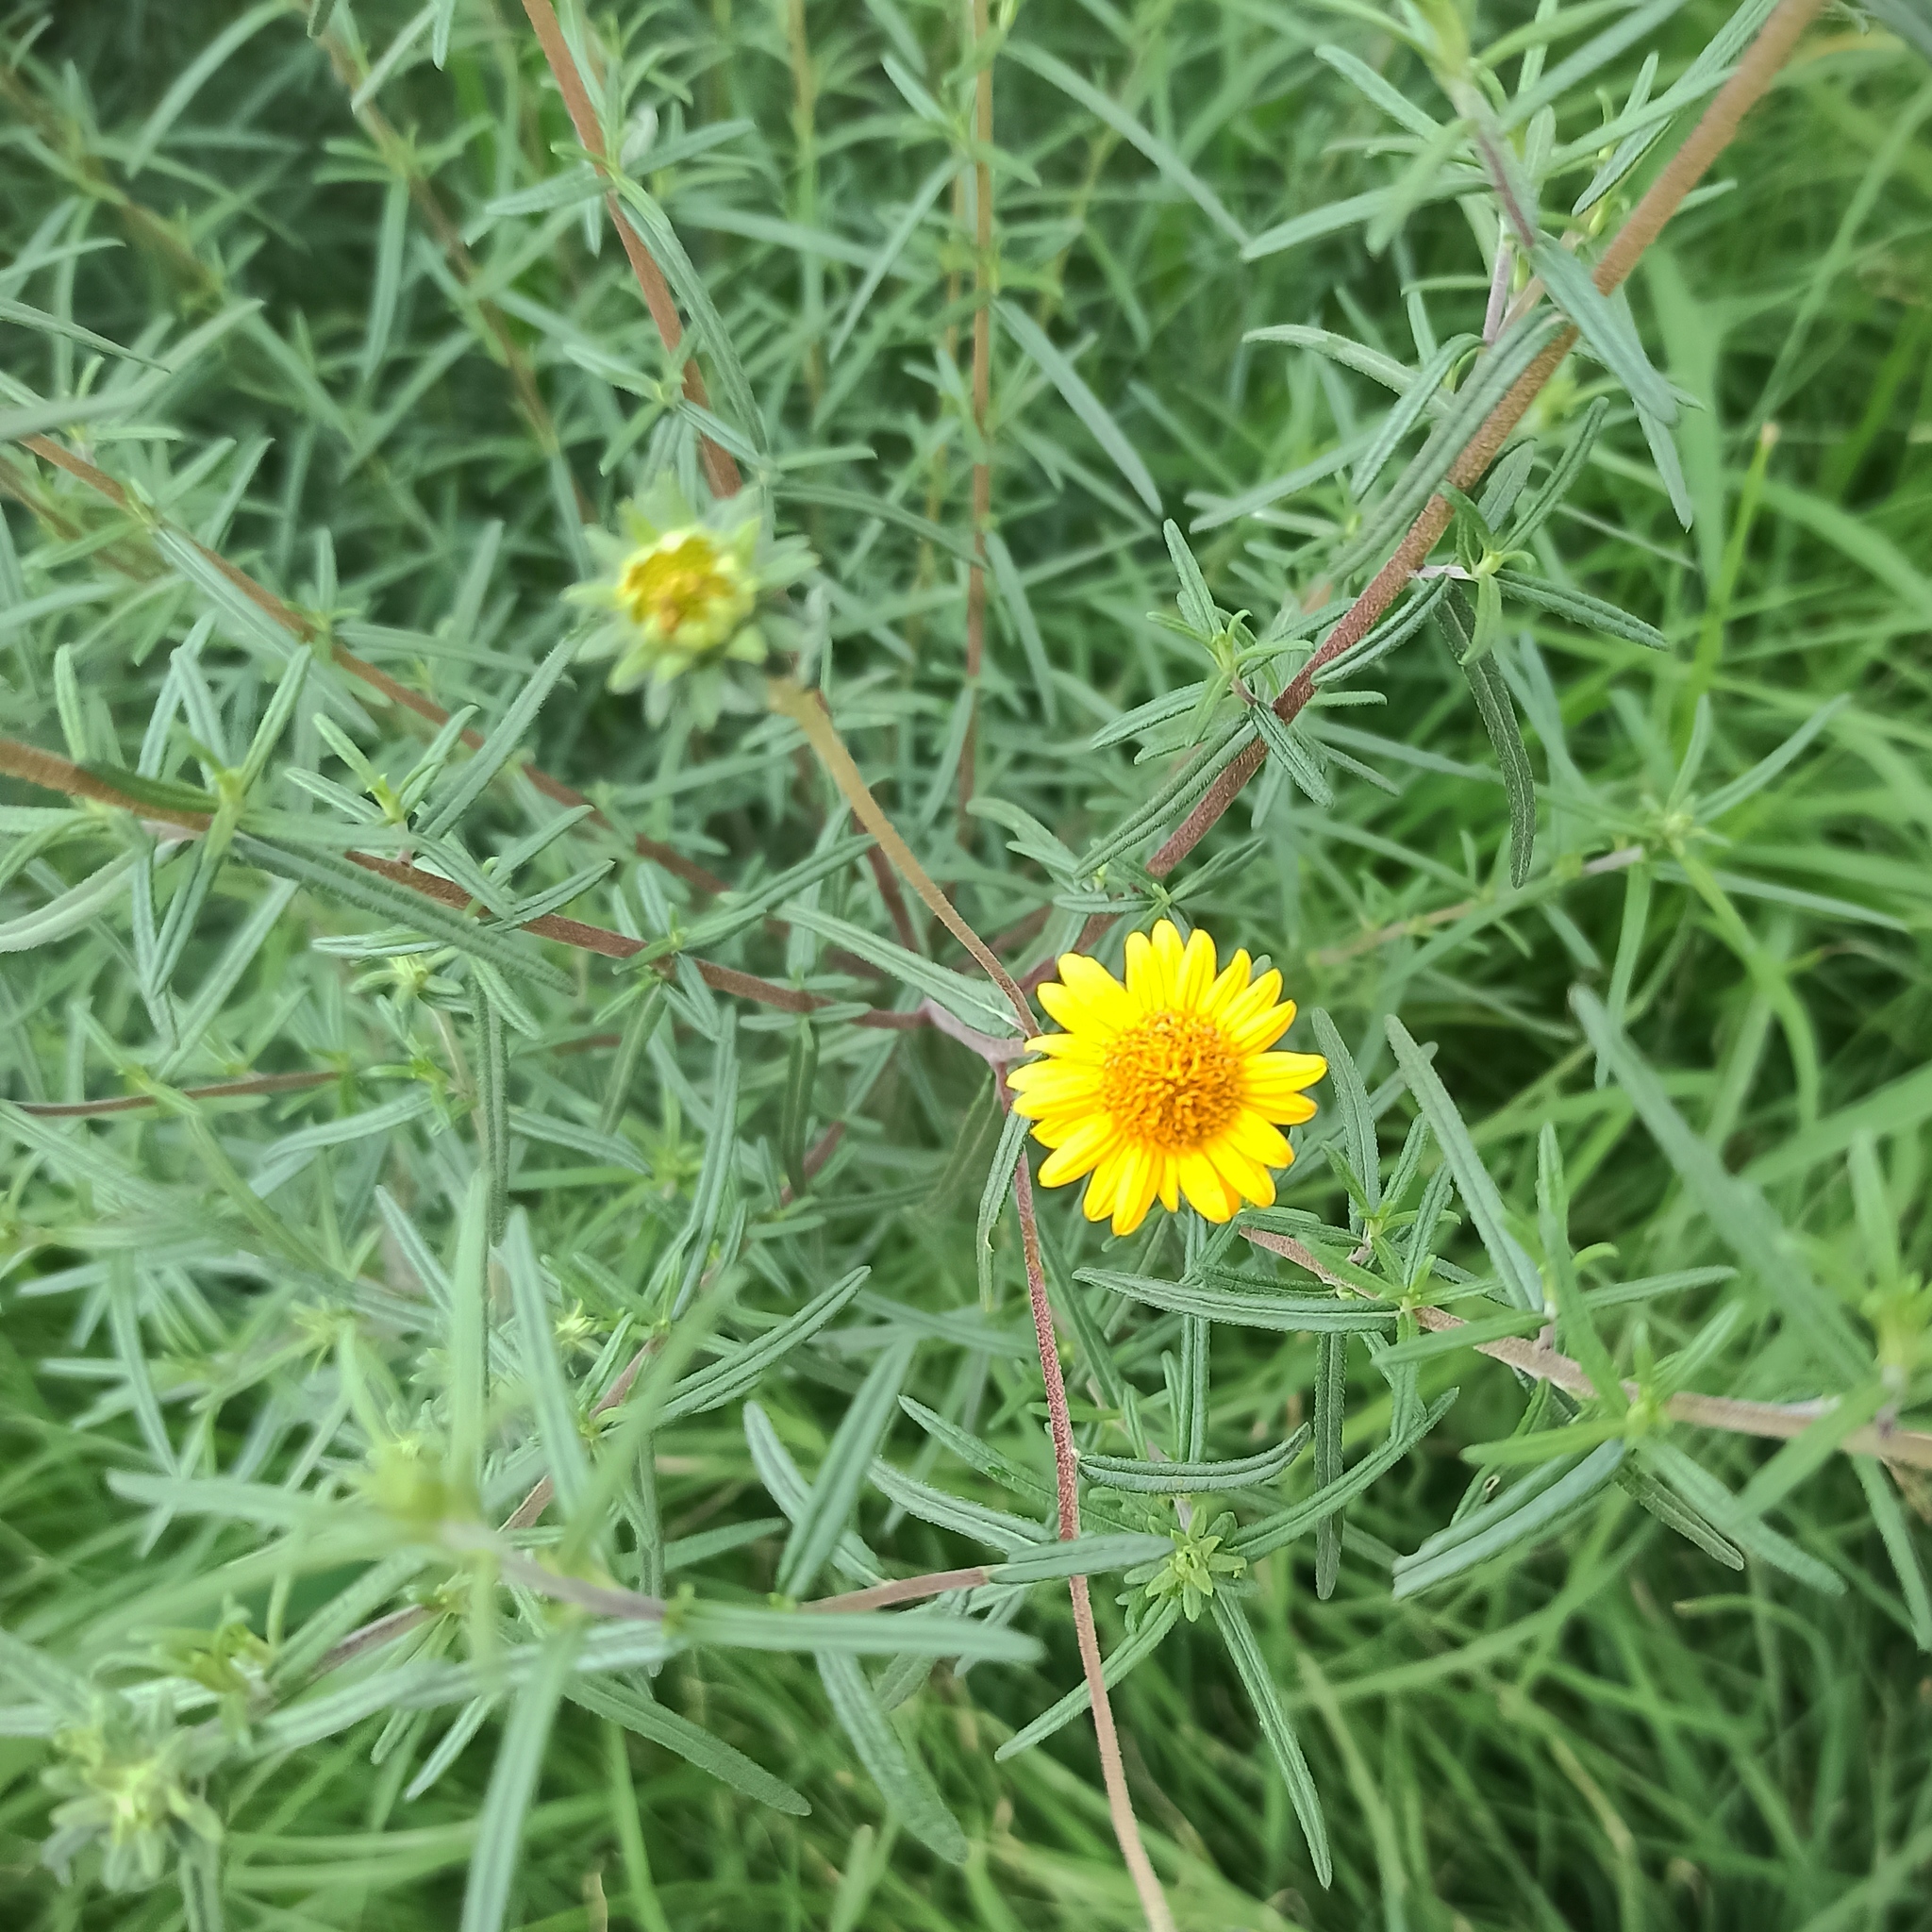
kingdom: Plantae
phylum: Tracheophyta
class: Magnoliopsida
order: Asterales
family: Asteraceae
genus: Aldama
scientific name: Aldama linearis
